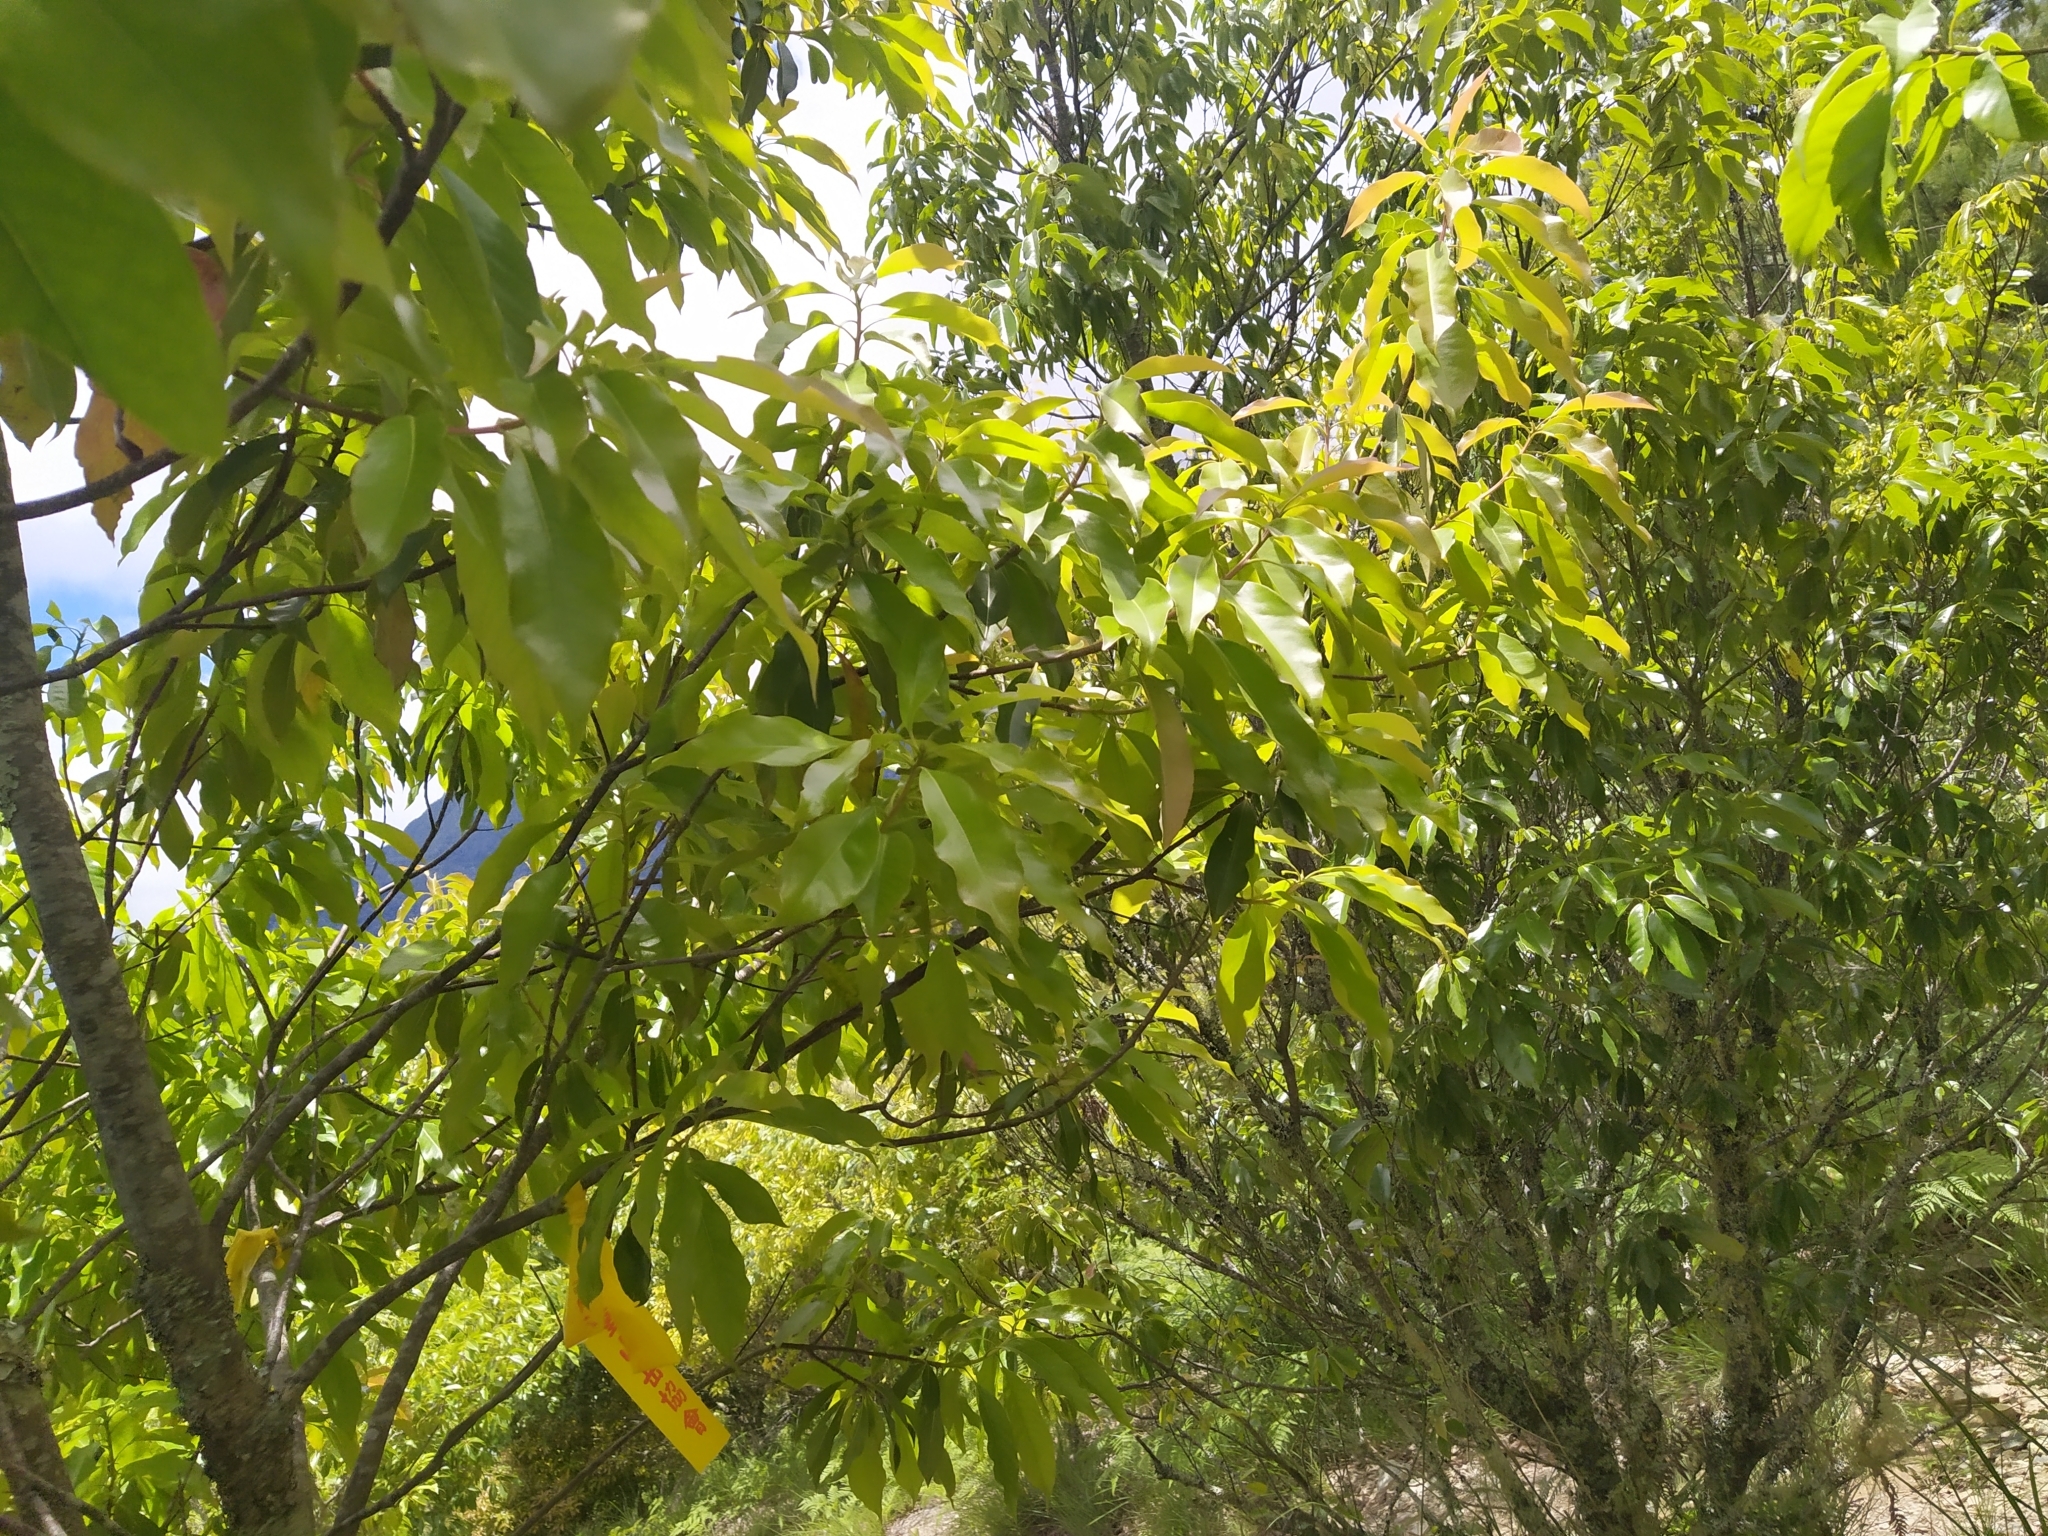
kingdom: Plantae
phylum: Tracheophyta
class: Magnoliopsida
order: Fagales
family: Fagaceae
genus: Quercus
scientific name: Quercus glauca
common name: Ring-cup oak
